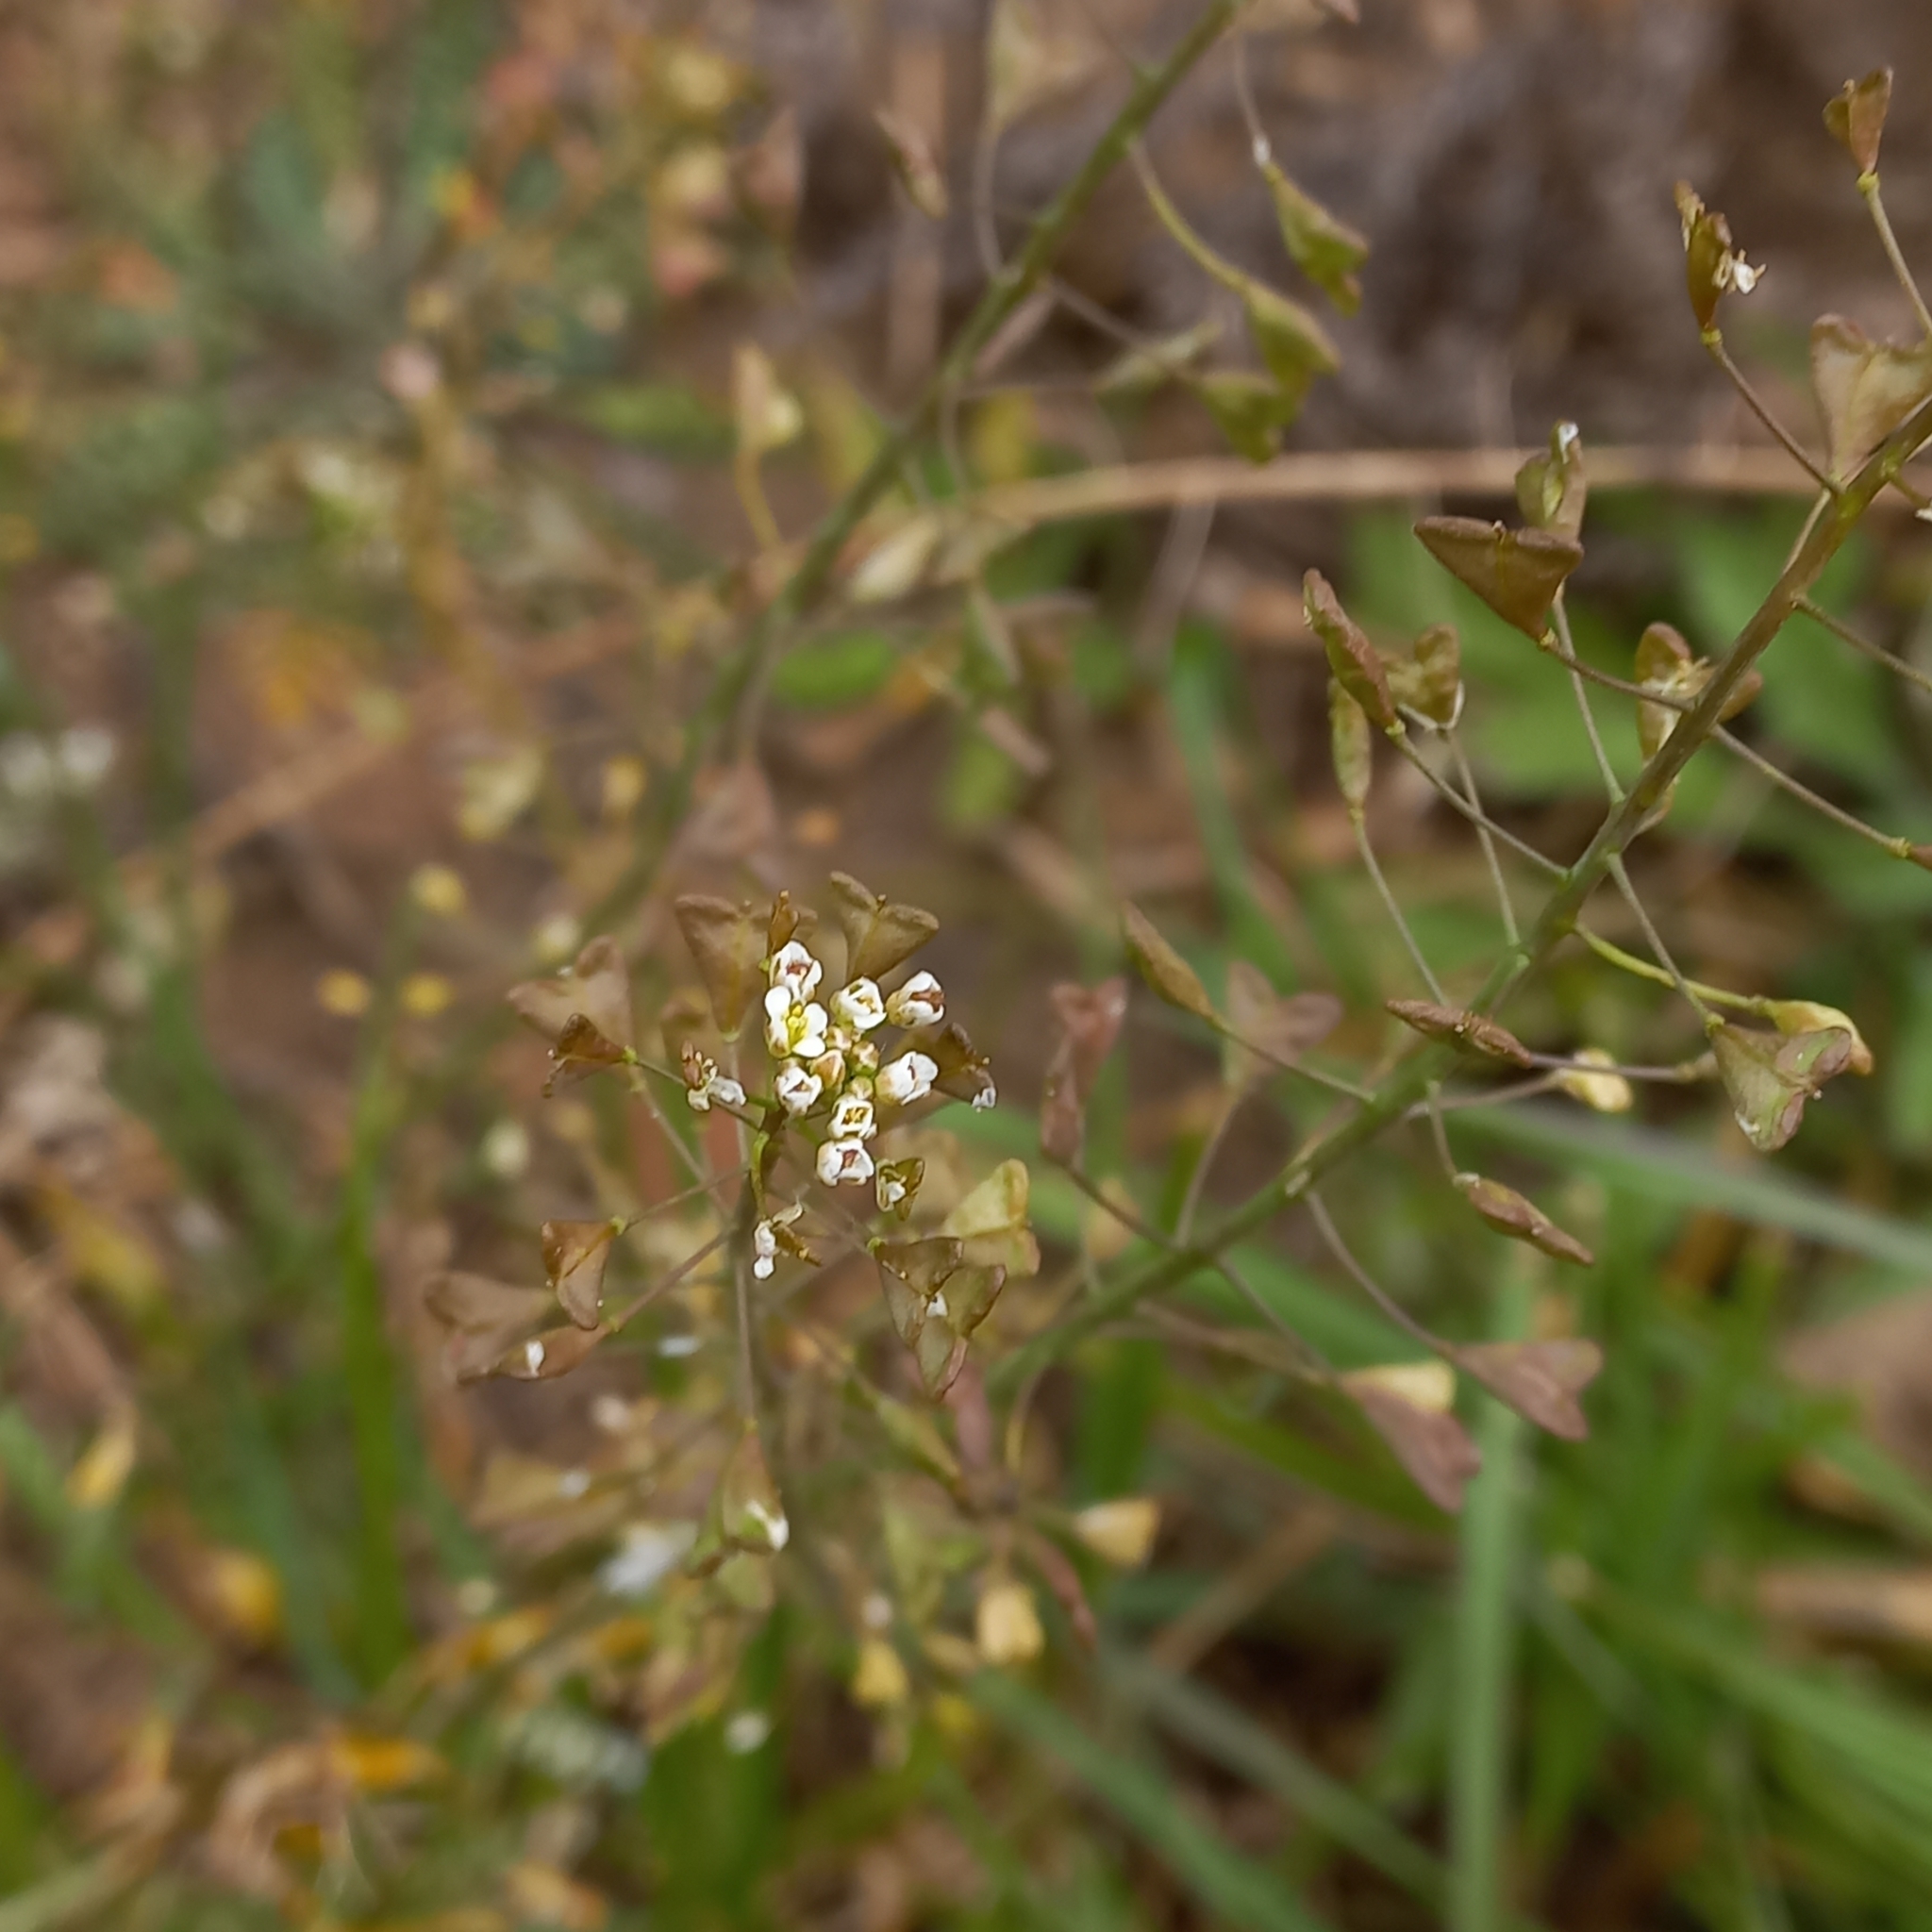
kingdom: Plantae
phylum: Tracheophyta
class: Magnoliopsida
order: Brassicales
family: Brassicaceae
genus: Capsella
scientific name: Capsella bursa-pastoris
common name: Shepherd's purse
